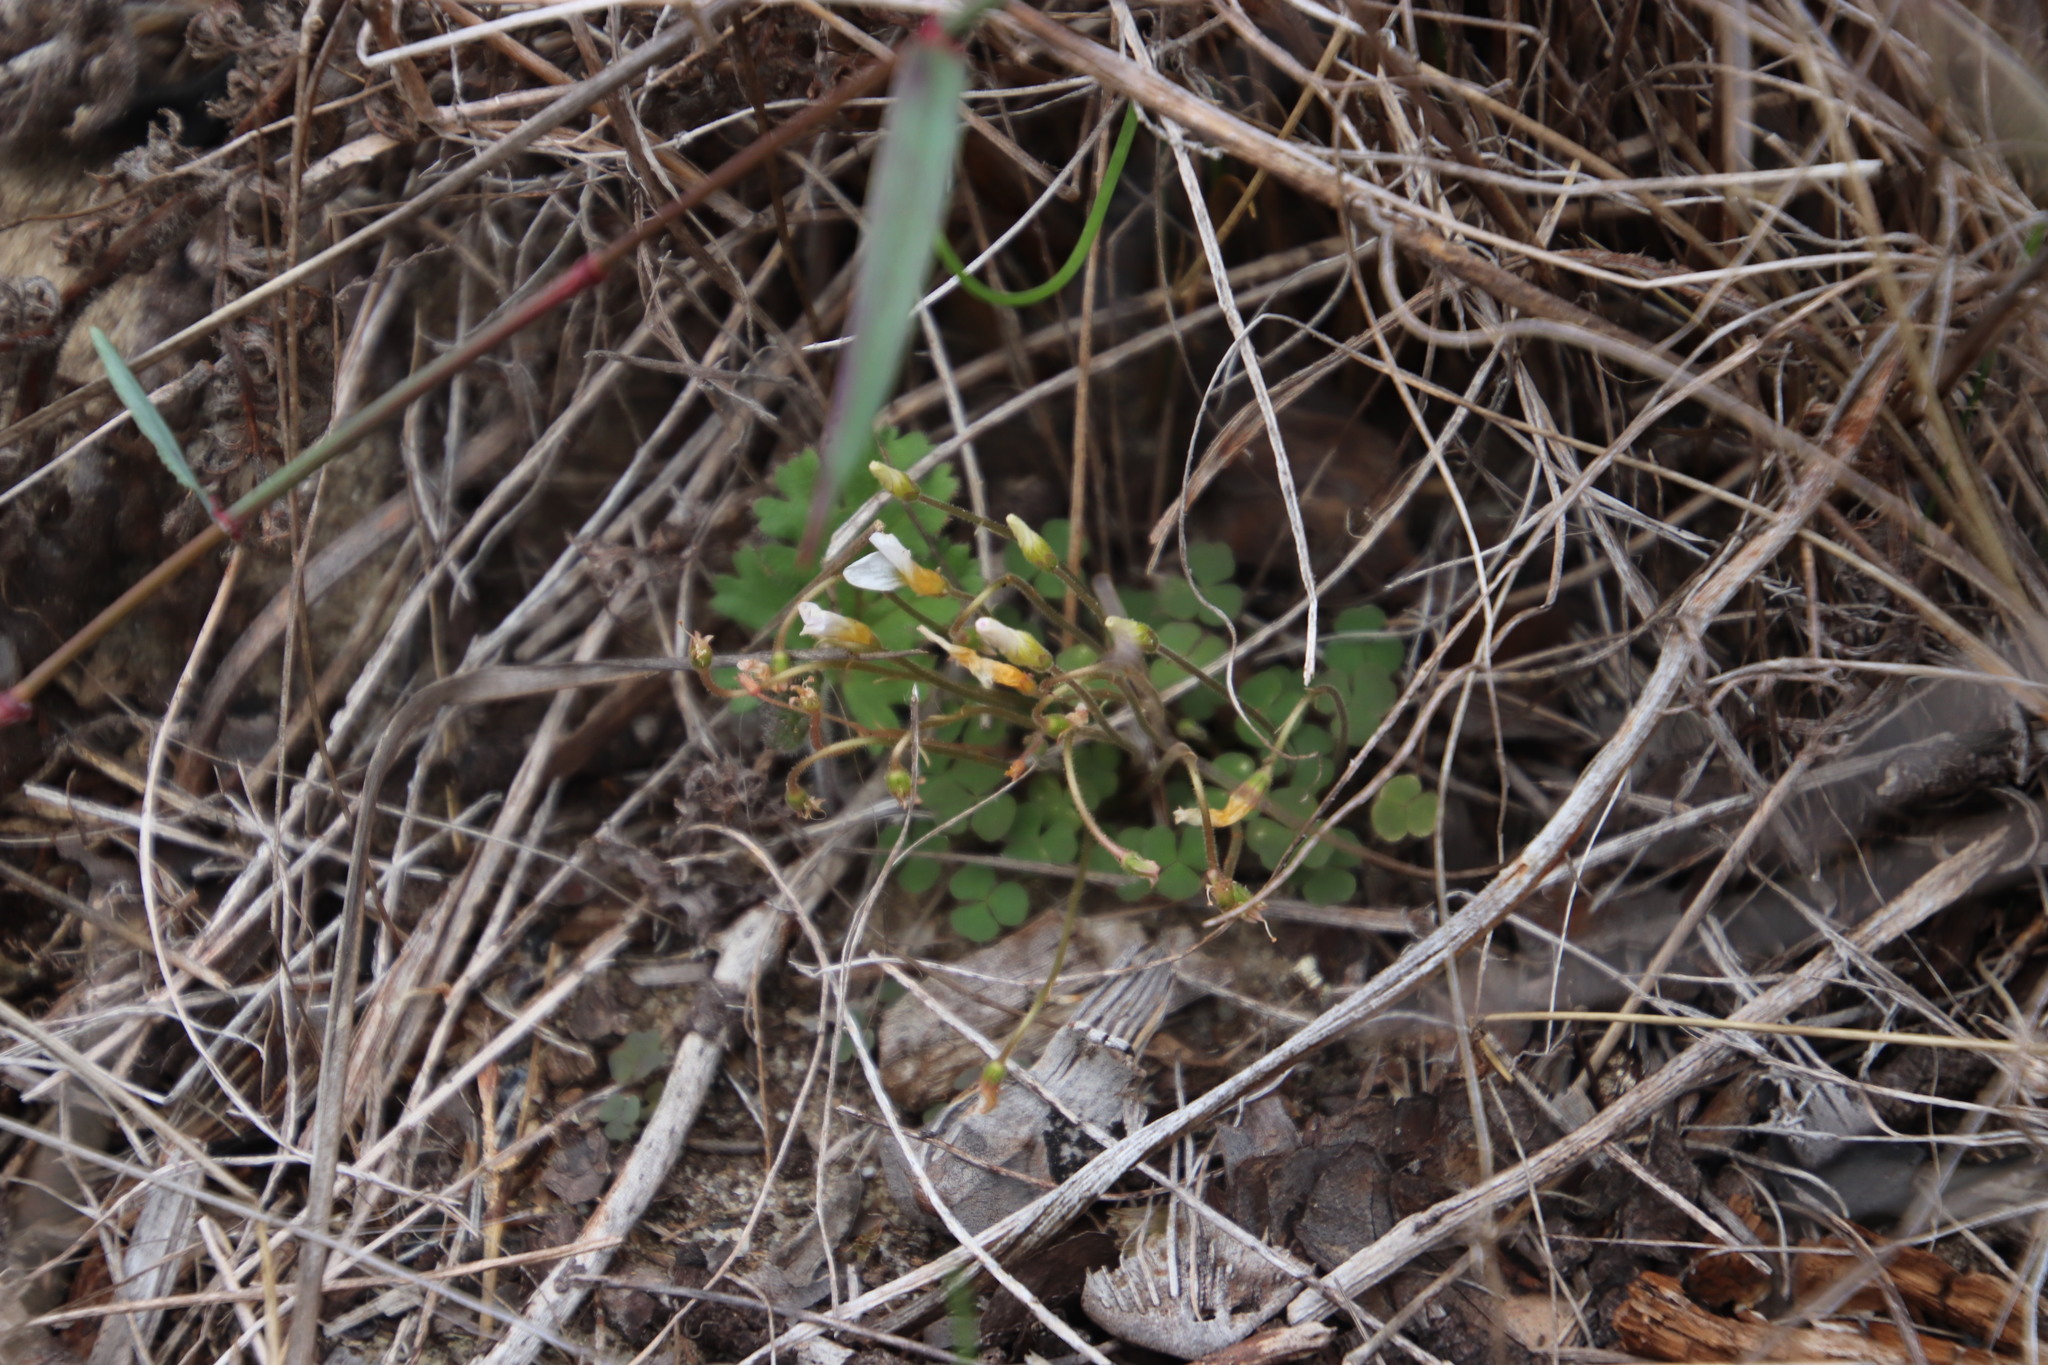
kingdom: Plantae
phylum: Tracheophyta
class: Magnoliopsida
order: Oxalidales
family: Oxalidaceae
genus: Oxalis
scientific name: Oxalis punctata
